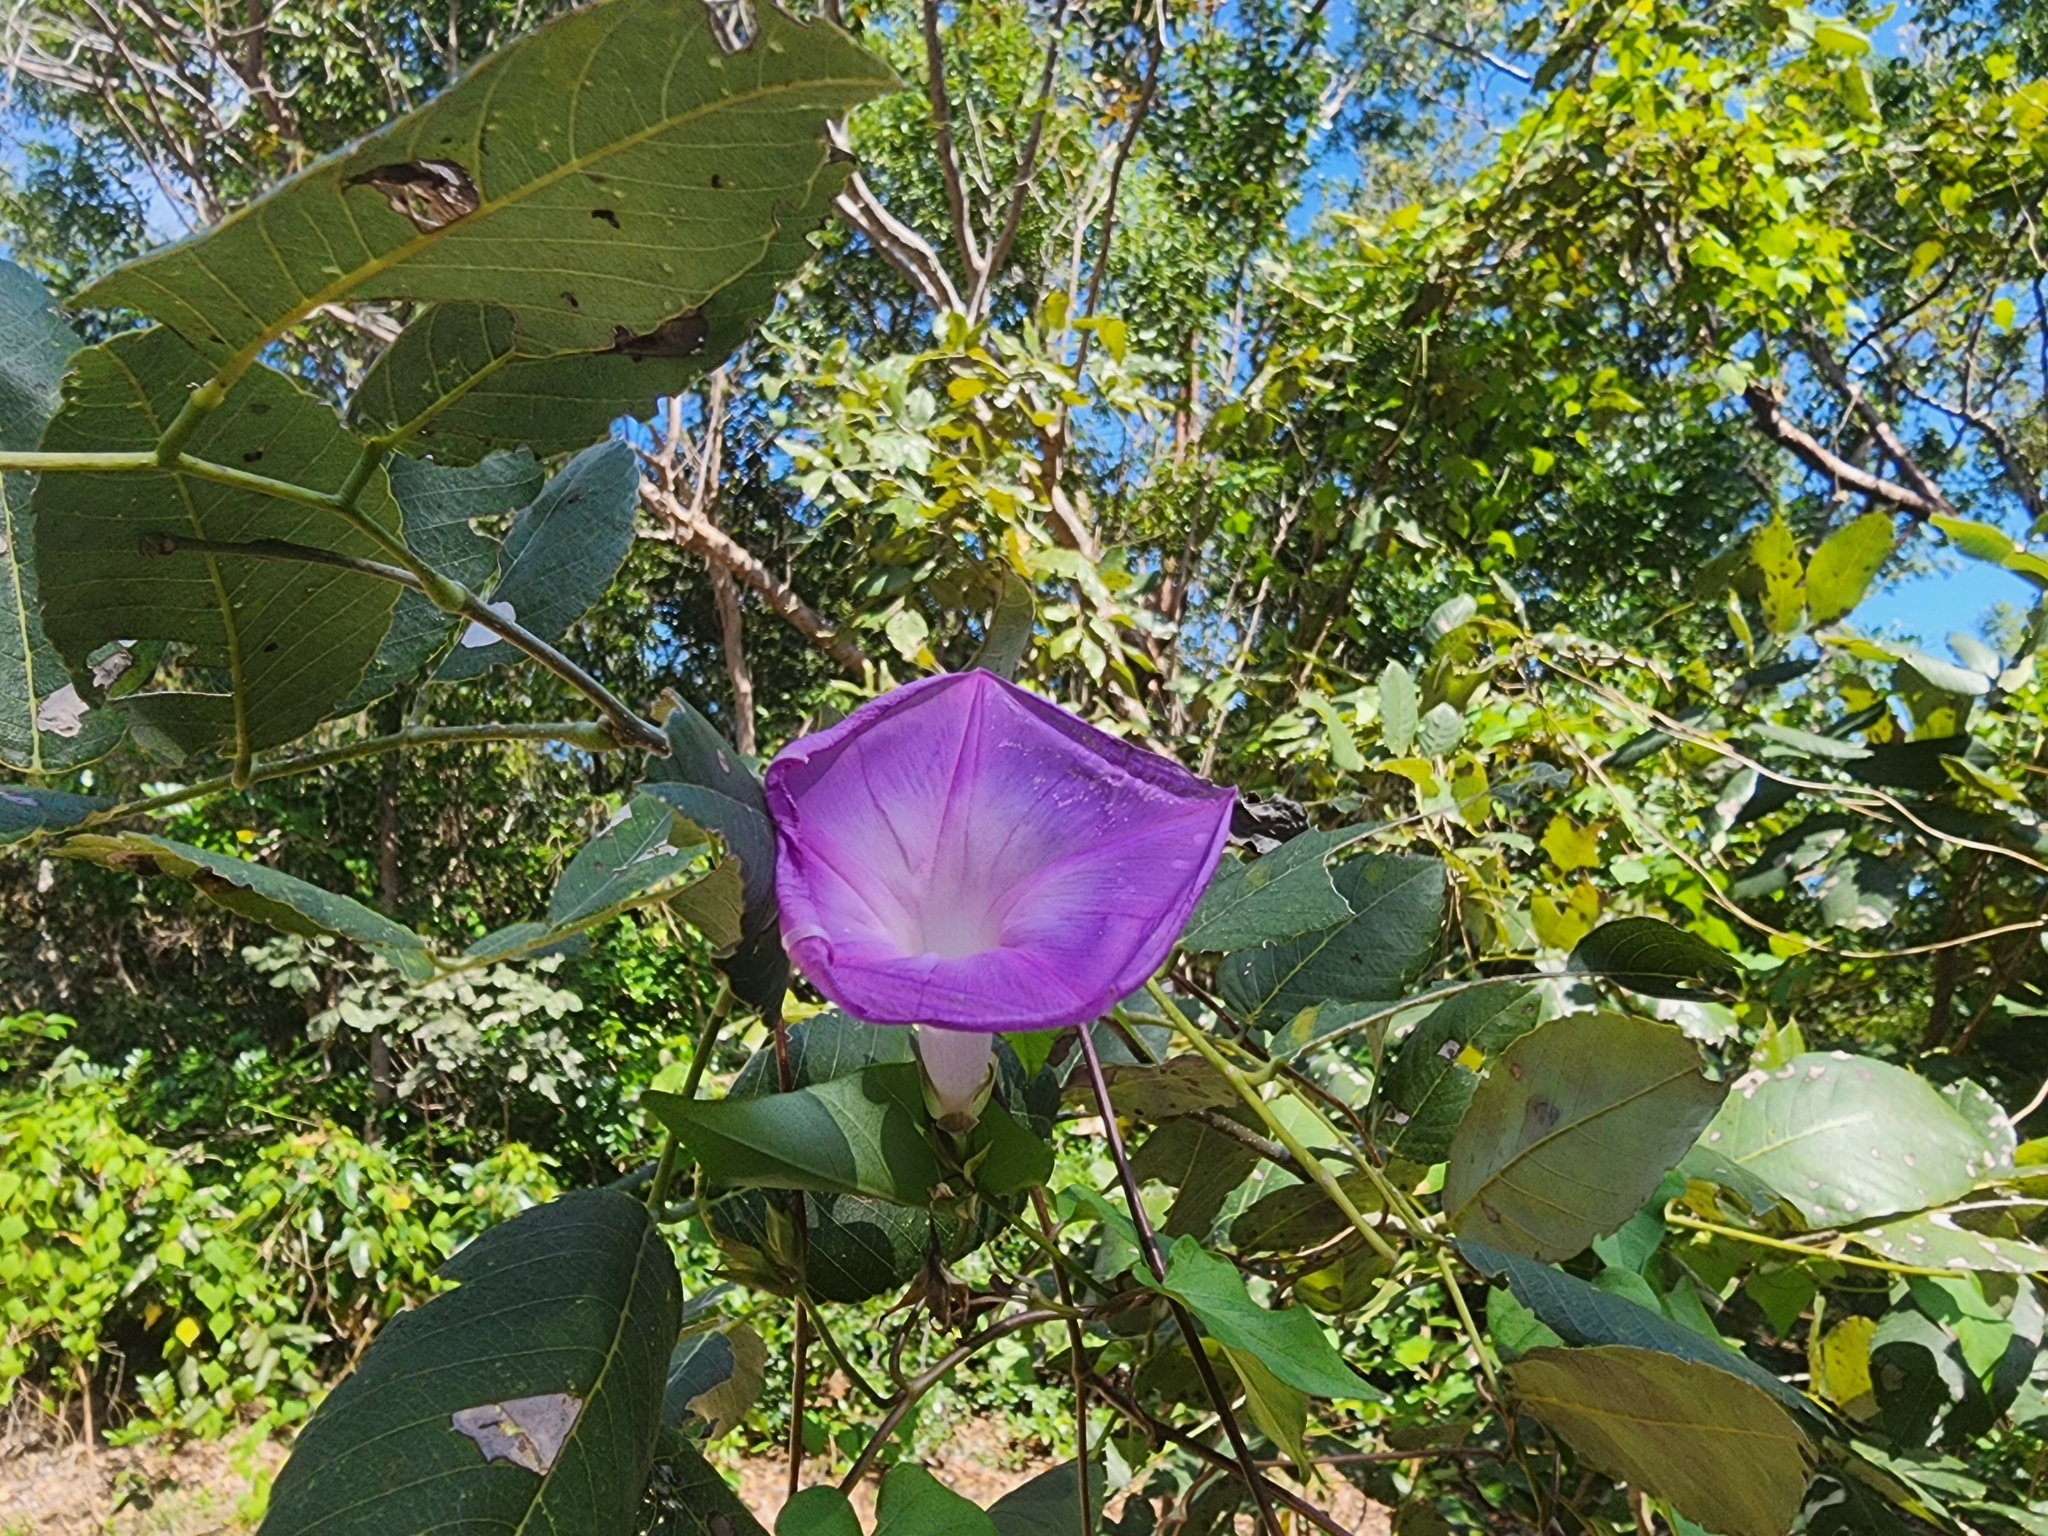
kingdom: Plantae
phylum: Tracheophyta
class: Magnoliopsida
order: Solanales
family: Convolvulaceae
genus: Ipomoea
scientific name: Ipomoea indica
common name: Blue dawnflower
